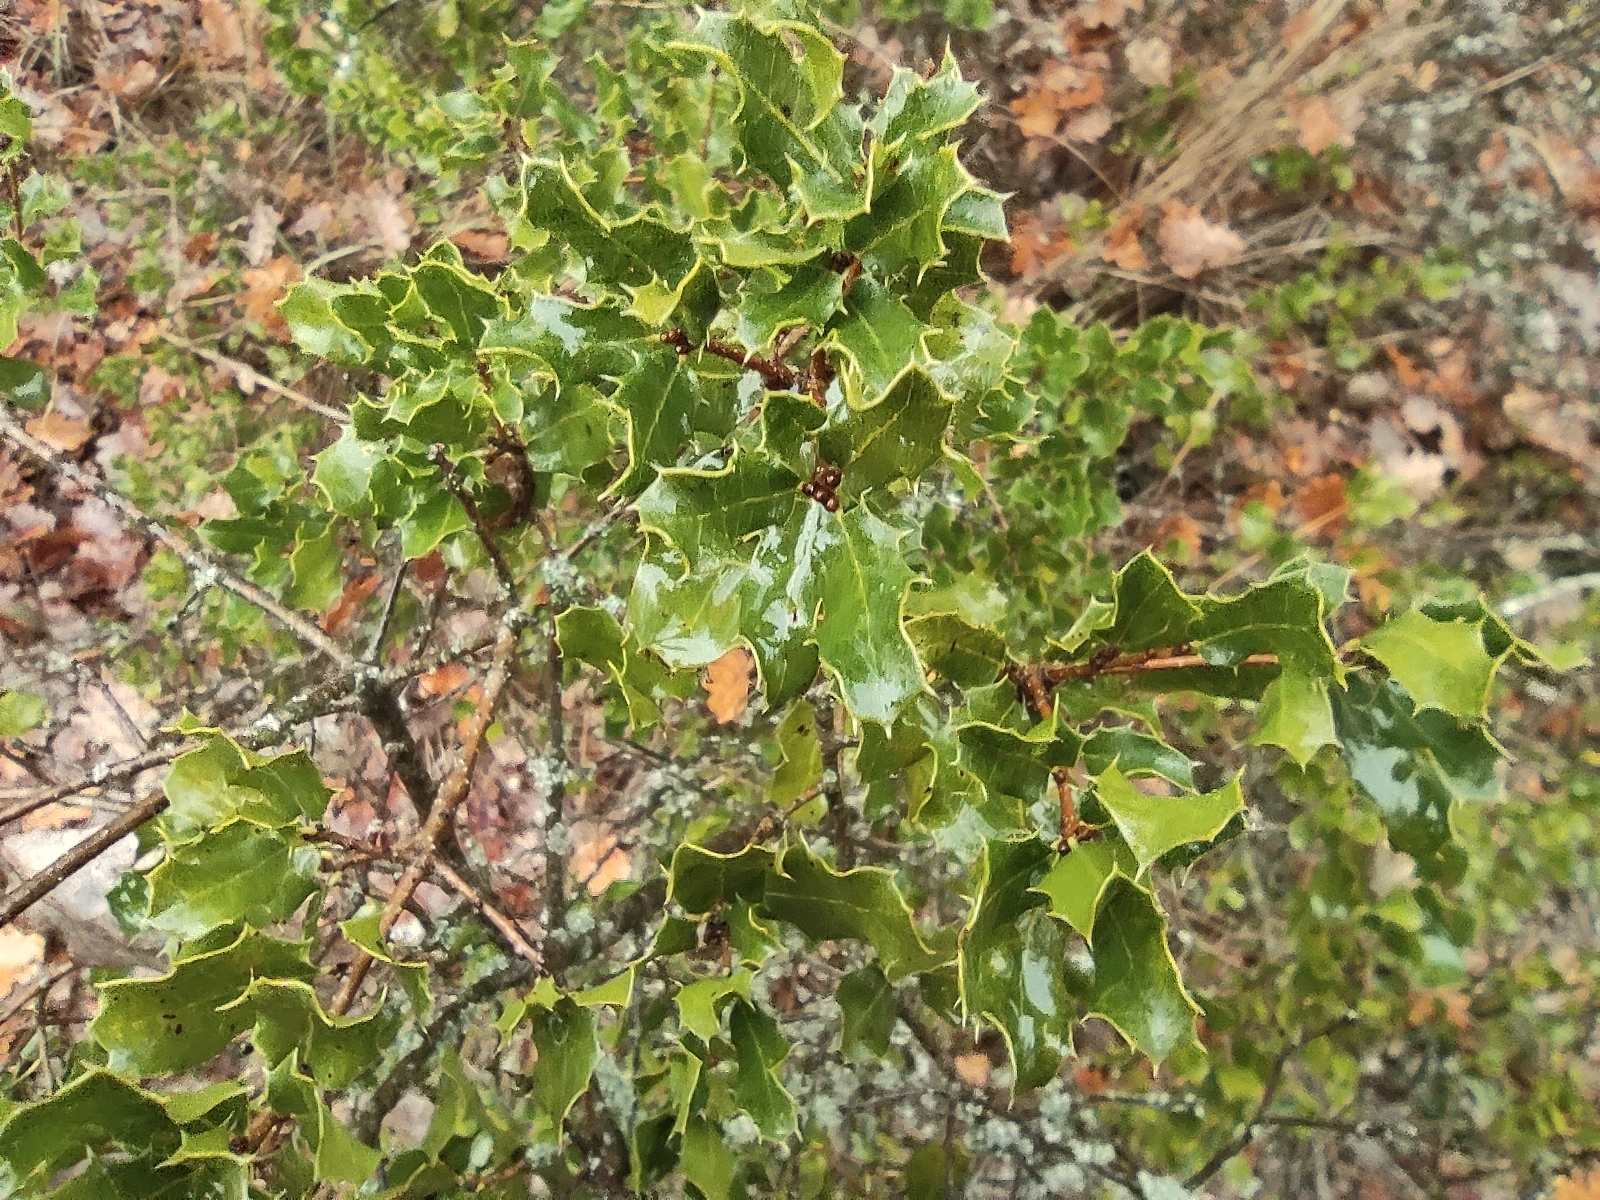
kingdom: Plantae
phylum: Tracheophyta
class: Magnoliopsida
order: Fagales
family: Fagaceae
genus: Quercus
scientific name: Quercus coccifera
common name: Kermes oak
